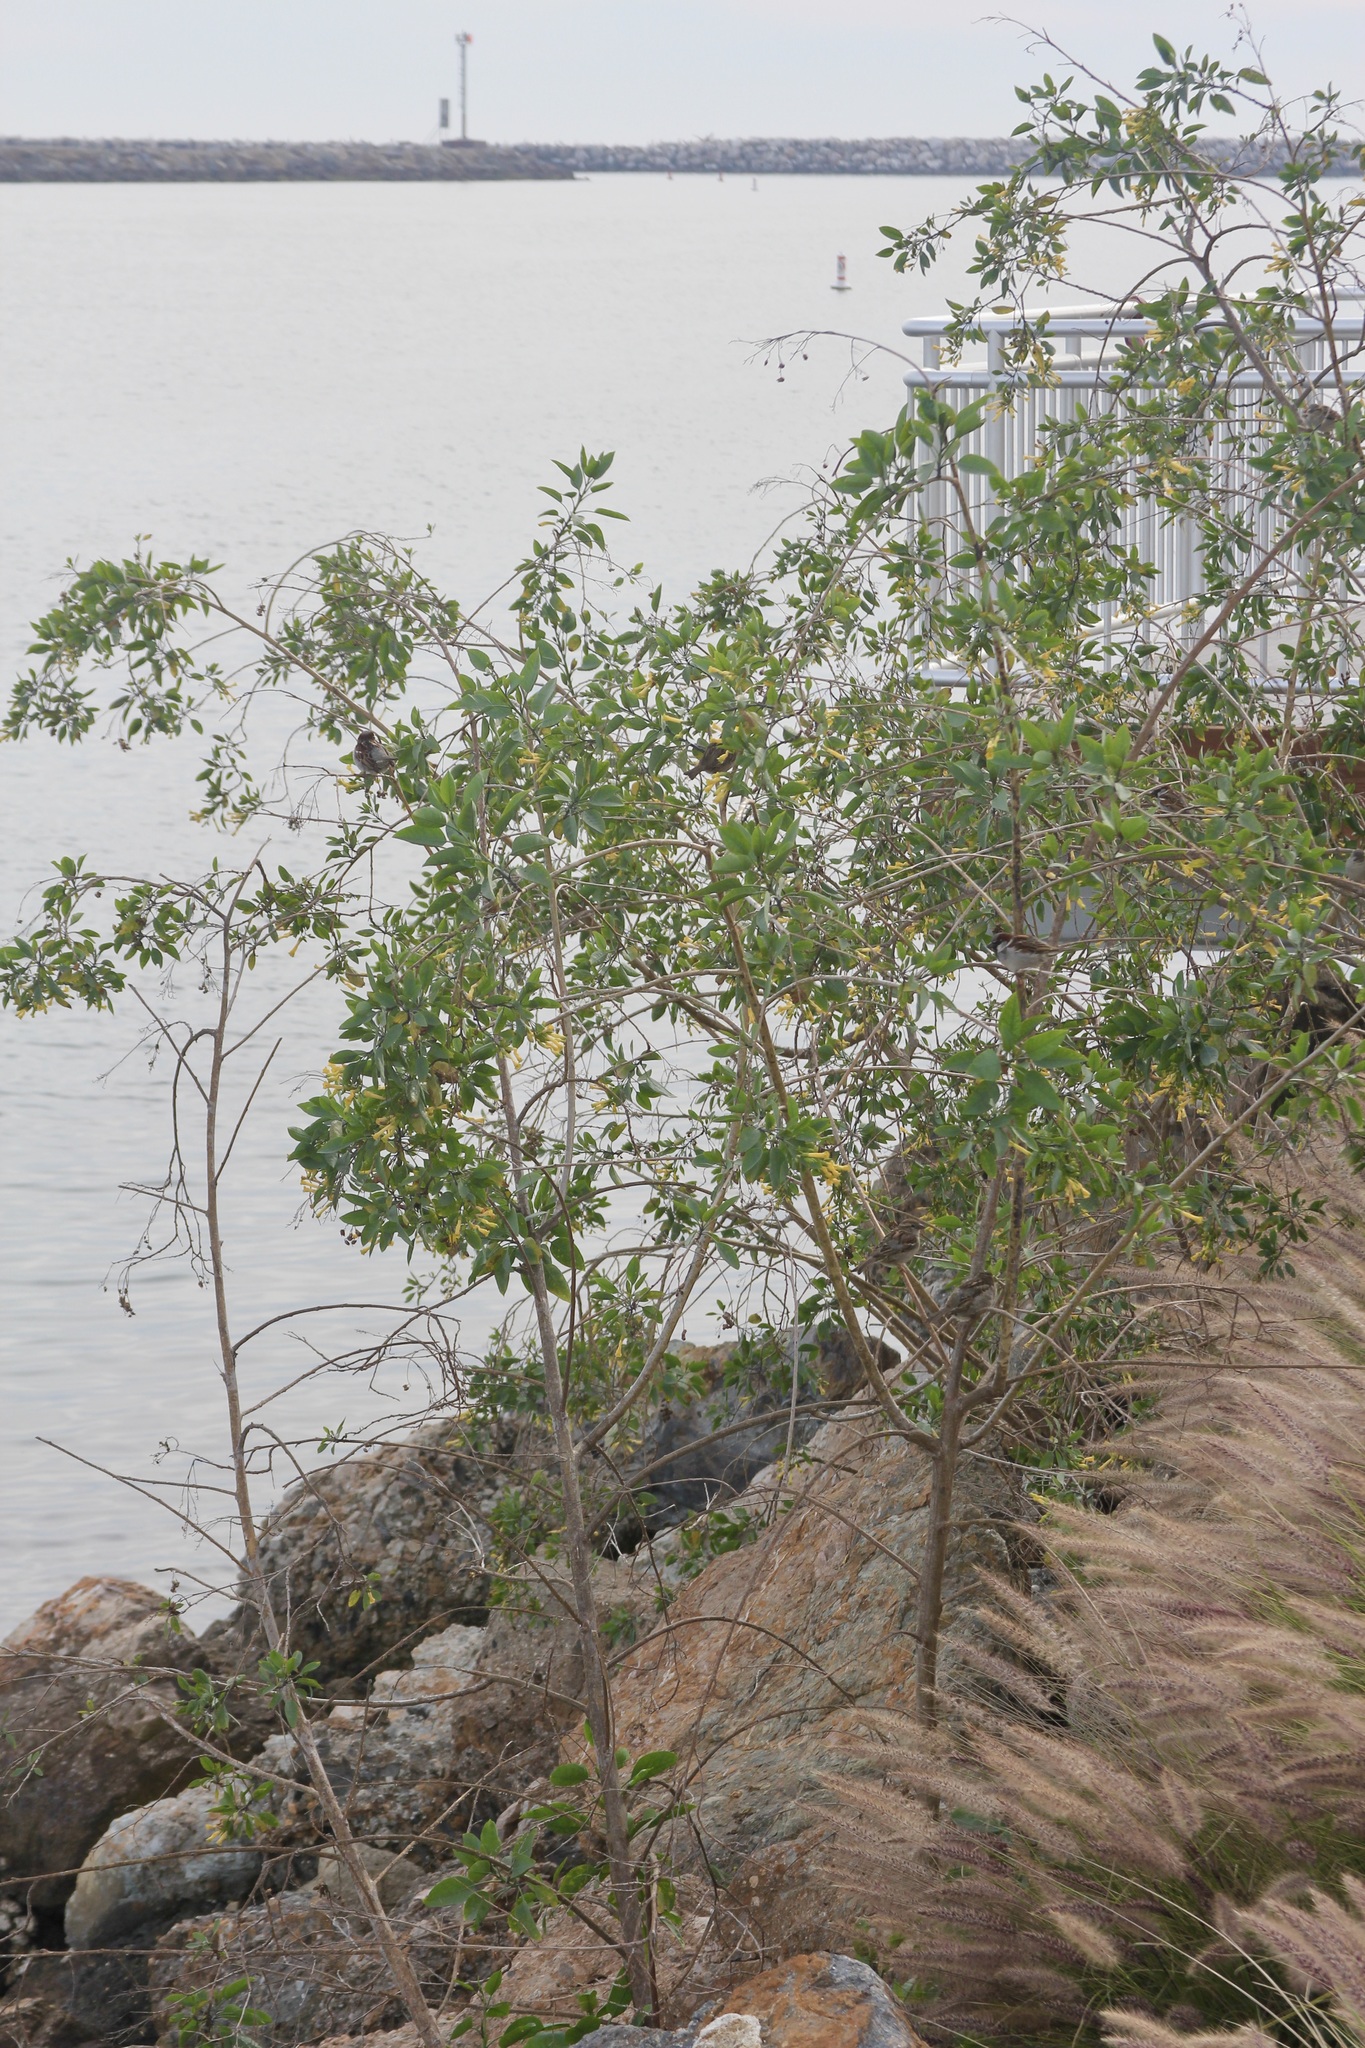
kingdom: Plantae
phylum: Tracheophyta
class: Magnoliopsida
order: Solanales
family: Solanaceae
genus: Nicotiana
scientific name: Nicotiana glauca
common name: Tree tobacco
